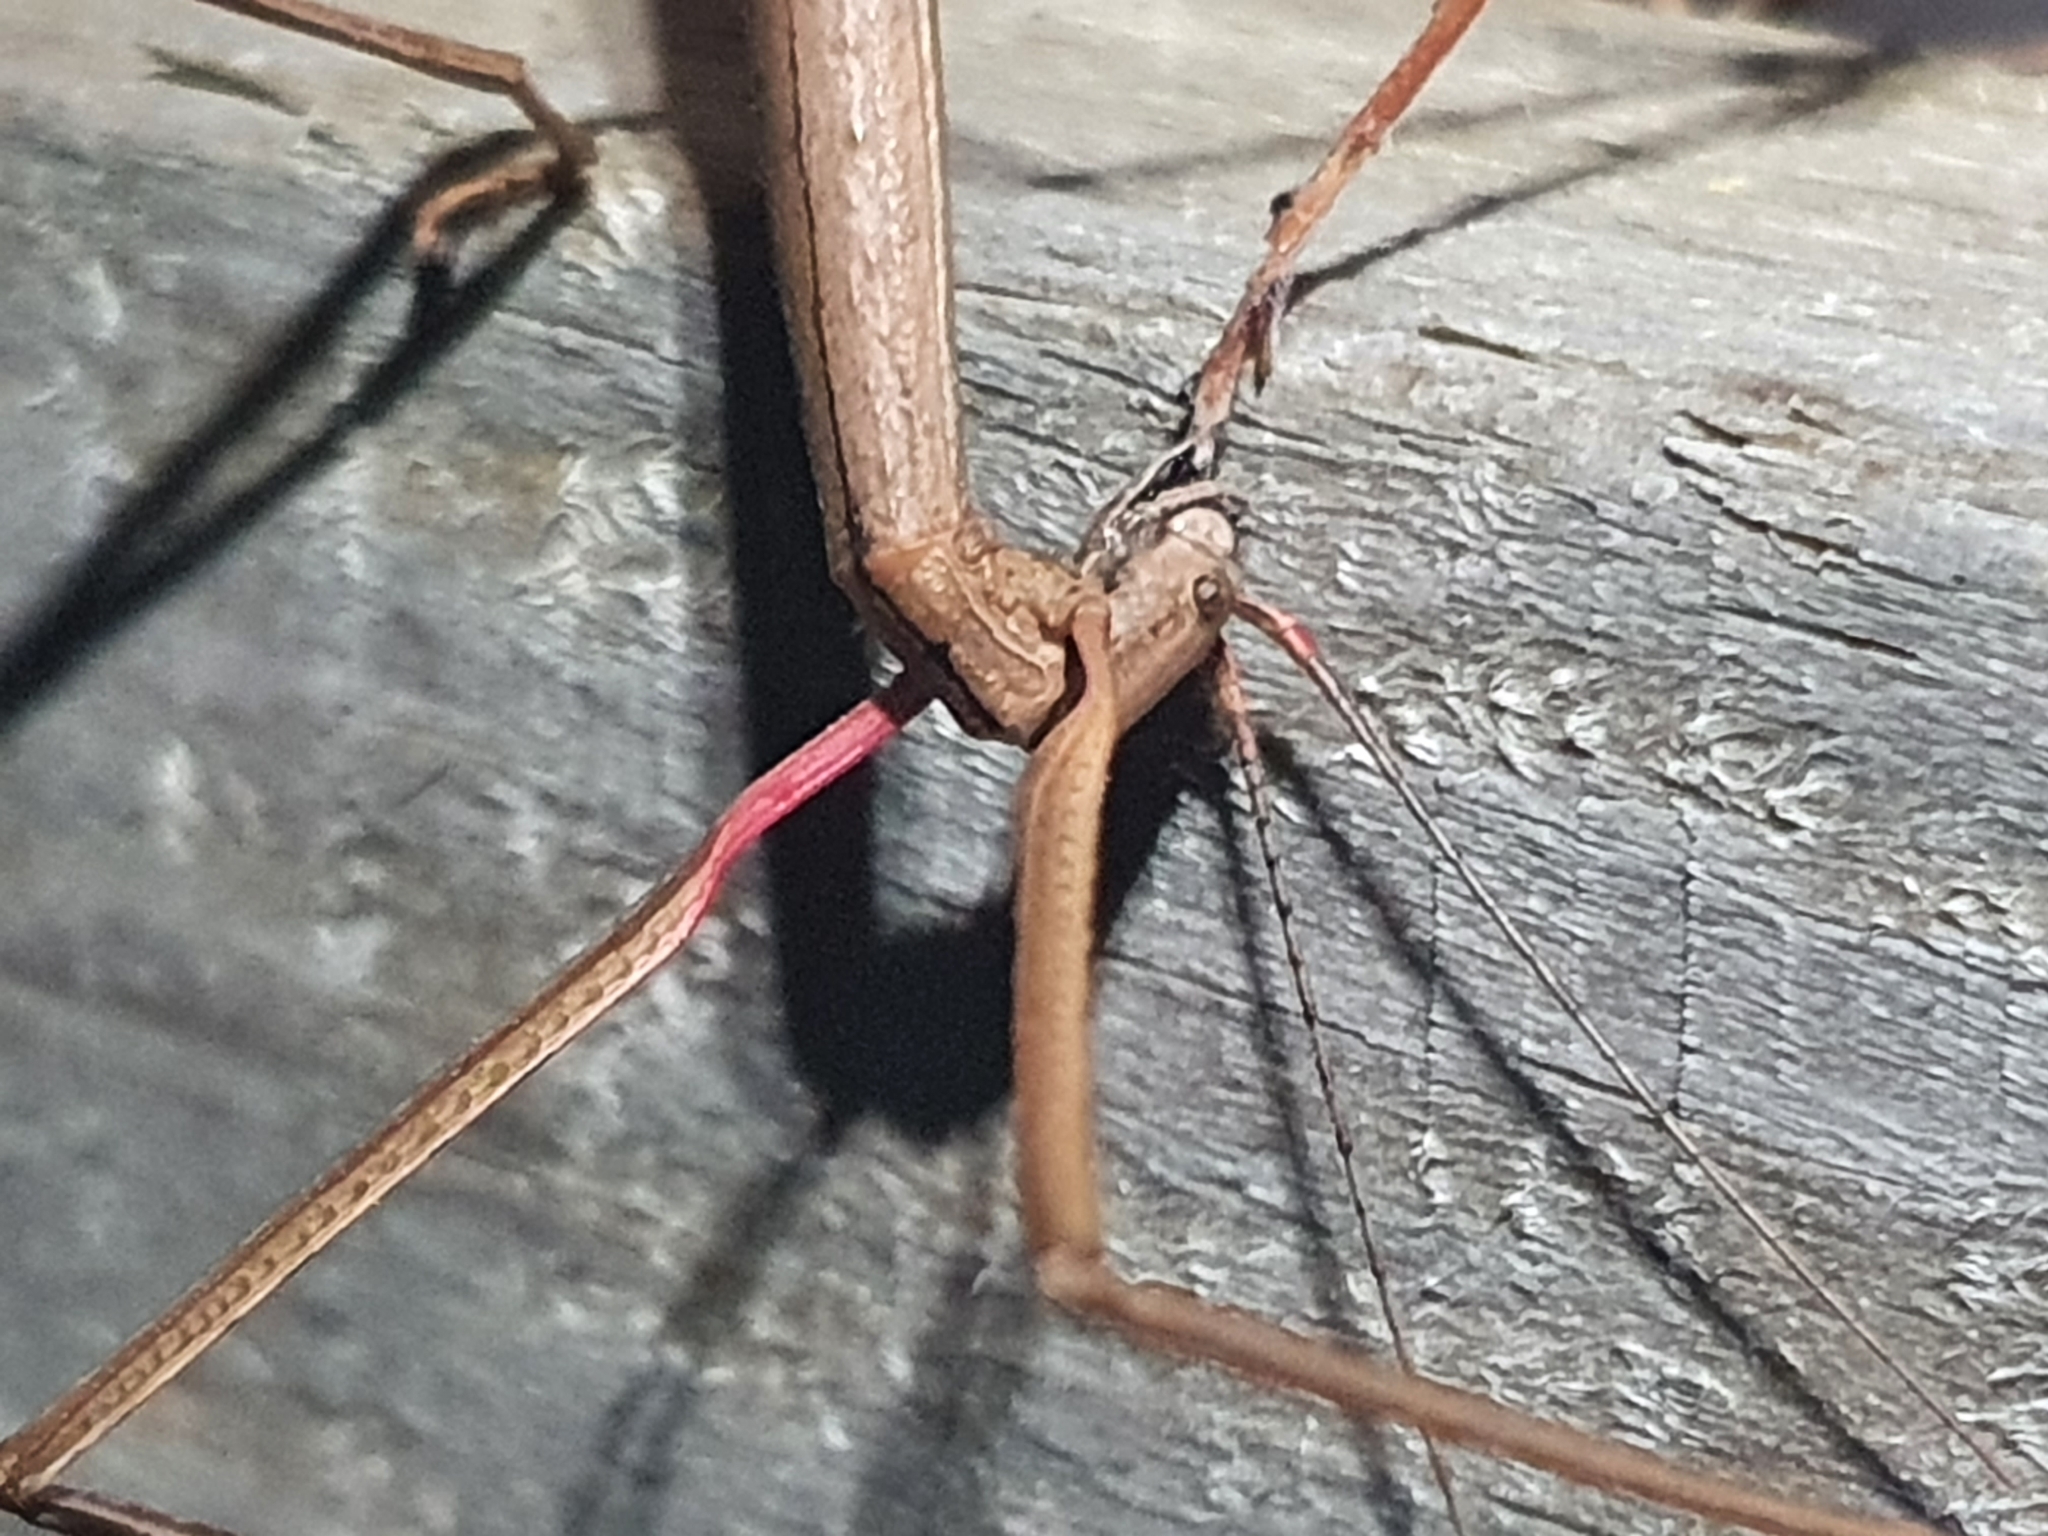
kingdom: Animalia
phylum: Arthropoda
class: Insecta
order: Phasmida
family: Phasmatidae
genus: Clitarchus
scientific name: Clitarchus hookeri
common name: Smooth stick insect
